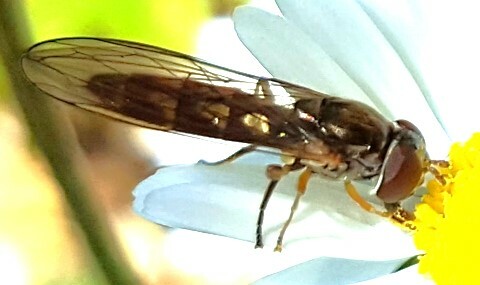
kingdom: Animalia
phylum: Arthropoda
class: Insecta
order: Diptera
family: Syrphidae
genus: Melanostoma
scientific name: Melanostoma
